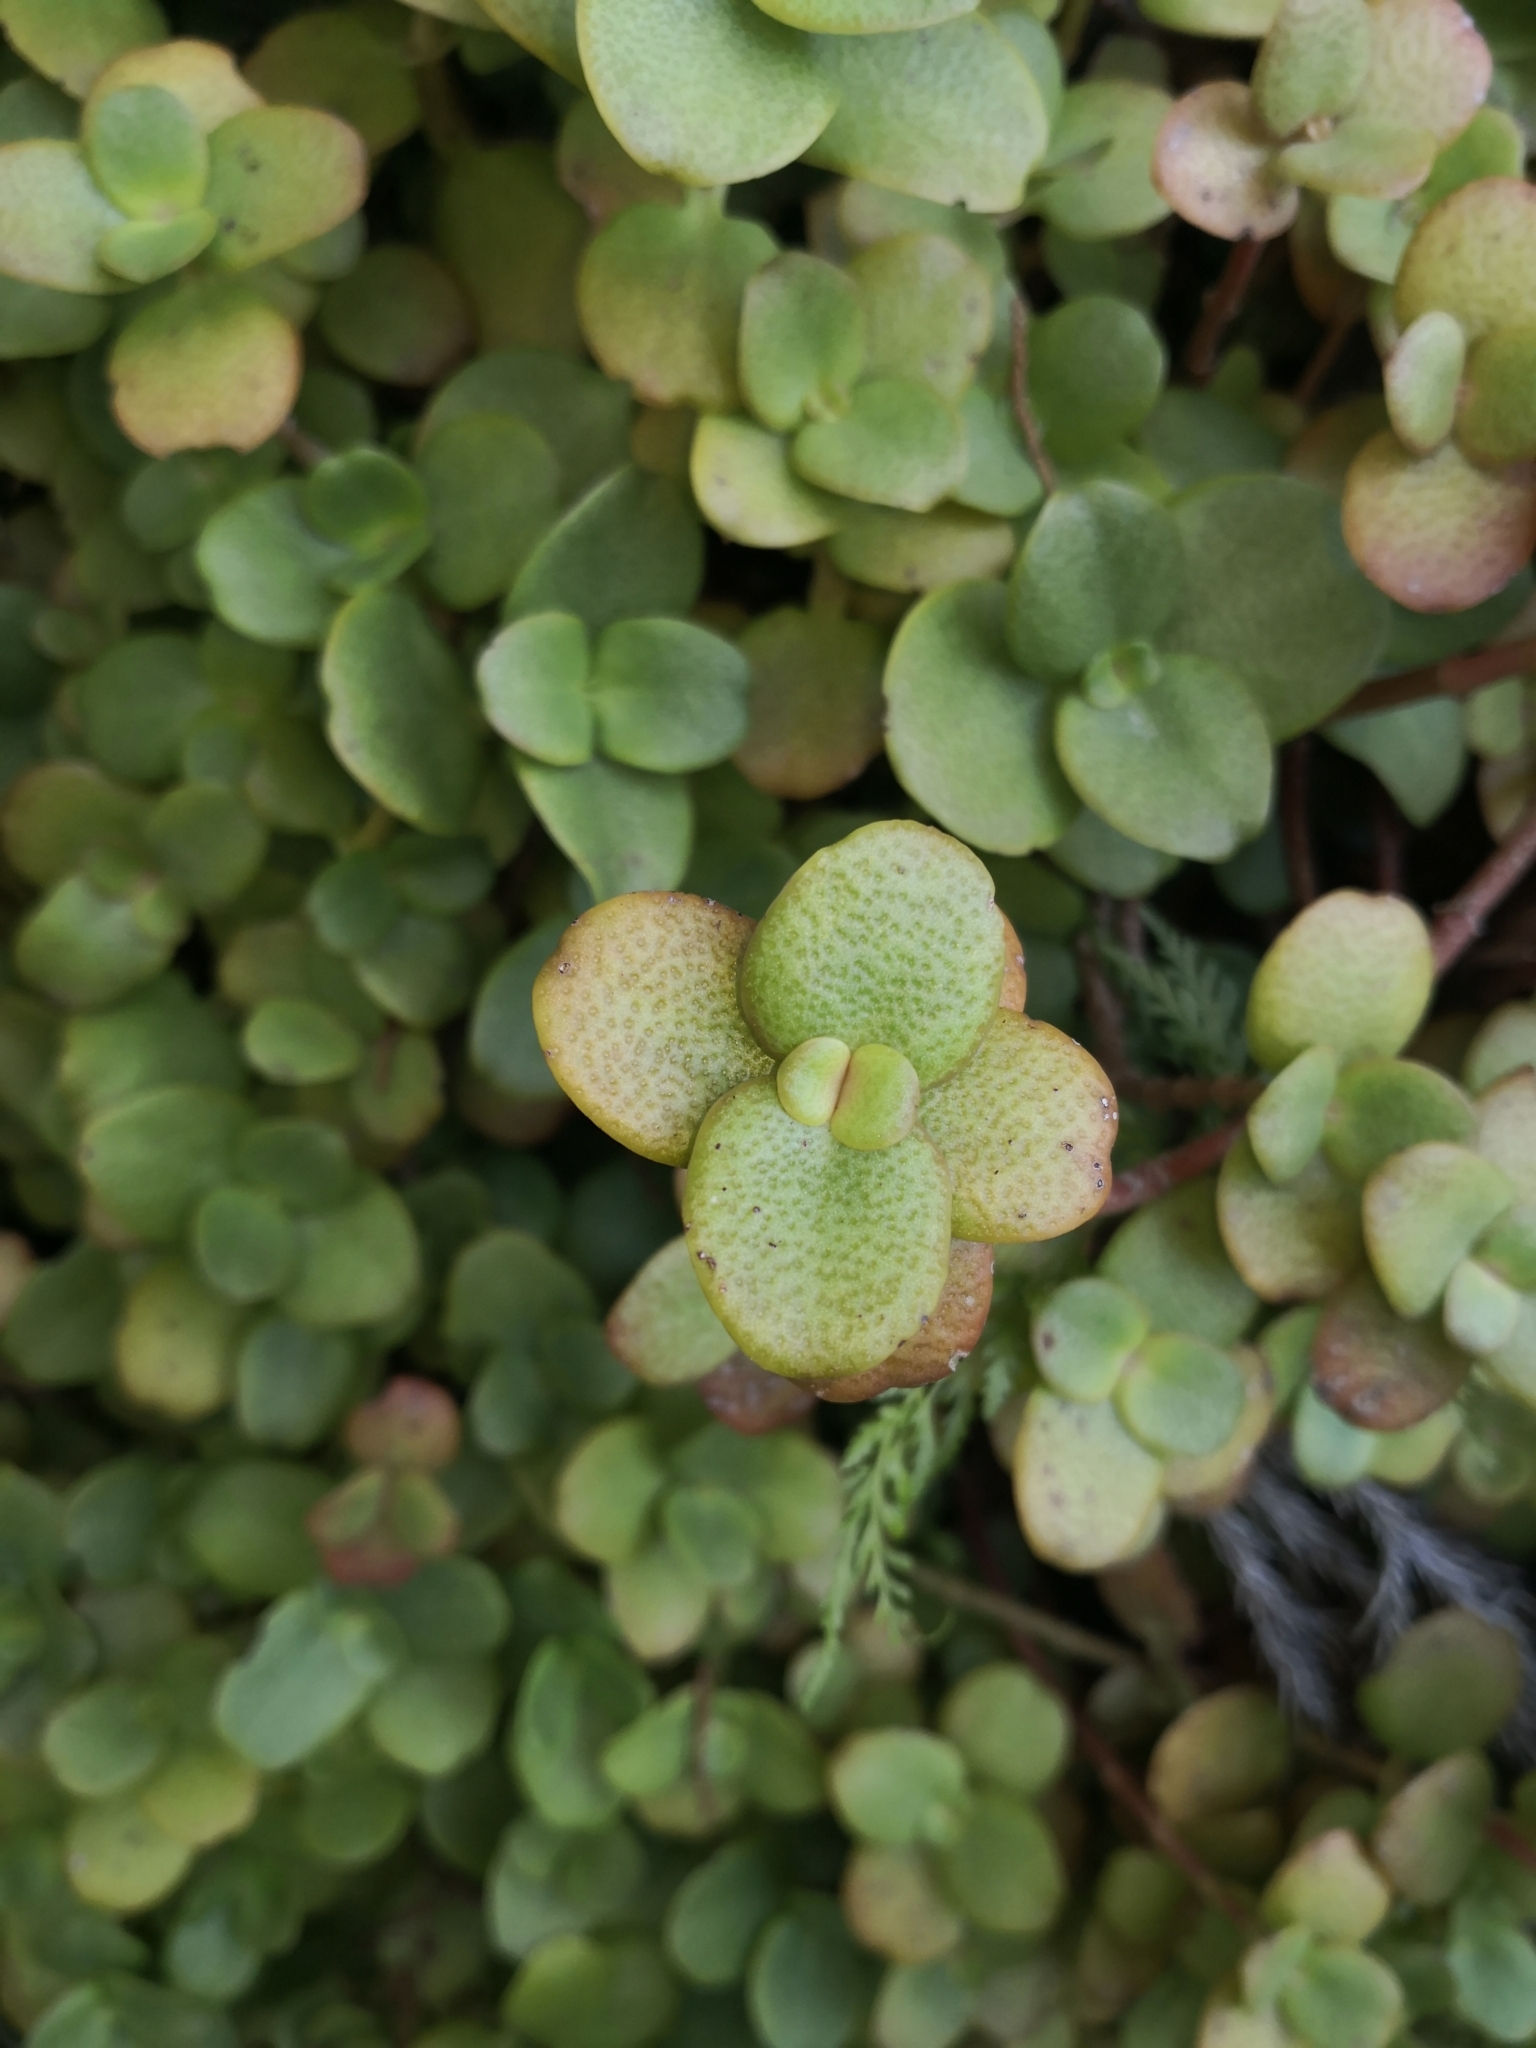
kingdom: Plantae
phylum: Tracheophyta
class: Magnoliopsida
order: Saxifragales
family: Crassulaceae
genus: Crassula
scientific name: Crassula multicava
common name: Cape province pygmyweed
